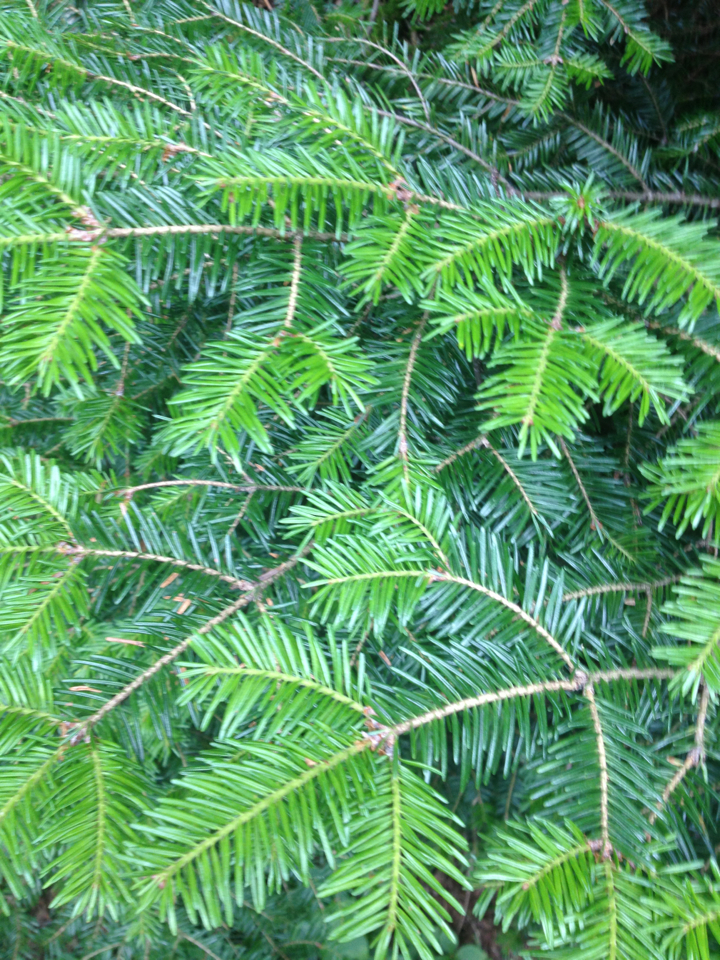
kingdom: Plantae
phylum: Tracheophyta
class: Pinopsida
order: Pinales
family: Pinaceae
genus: Abies
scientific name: Abies balsamea
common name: Balsam fir
